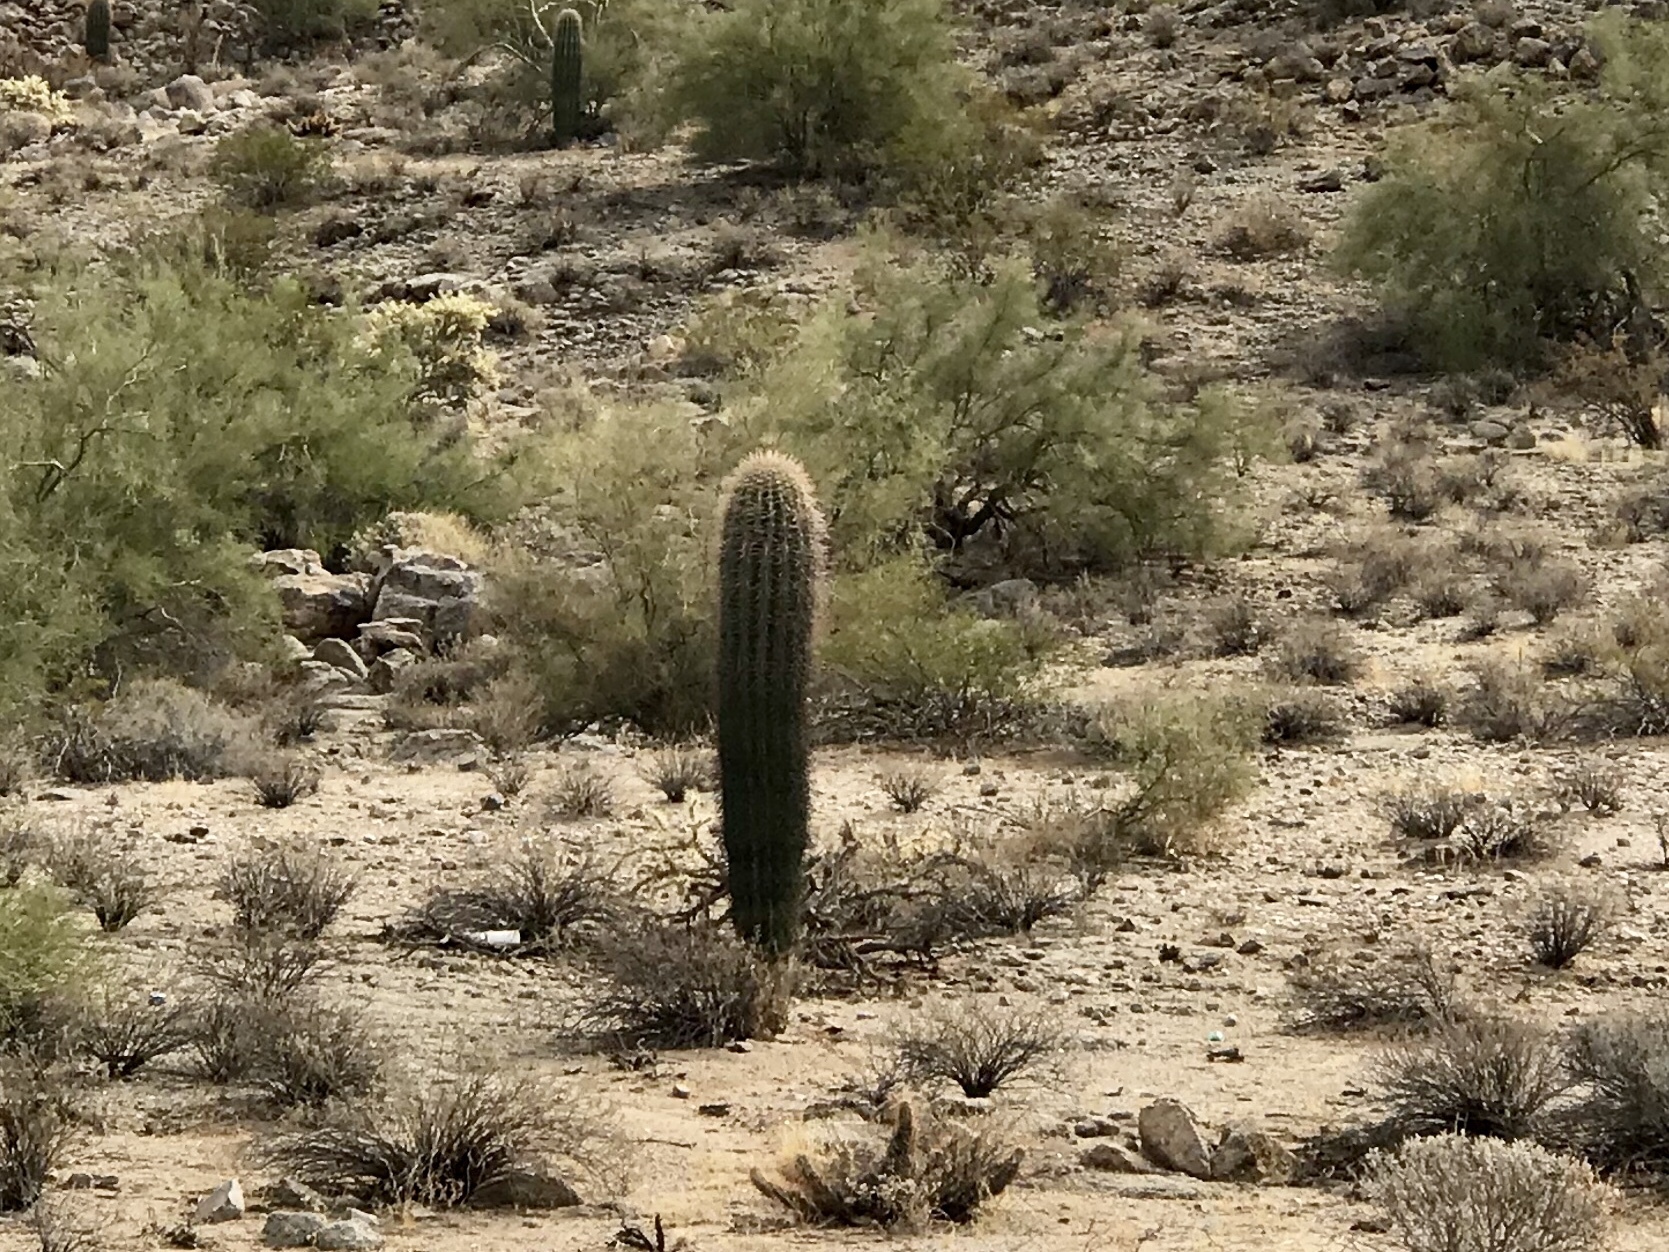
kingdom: Plantae
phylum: Tracheophyta
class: Magnoliopsida
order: Caryophyllales
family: Cactaceae
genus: Carnegiea
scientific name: Carnegiea gigantea
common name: Saguaro
